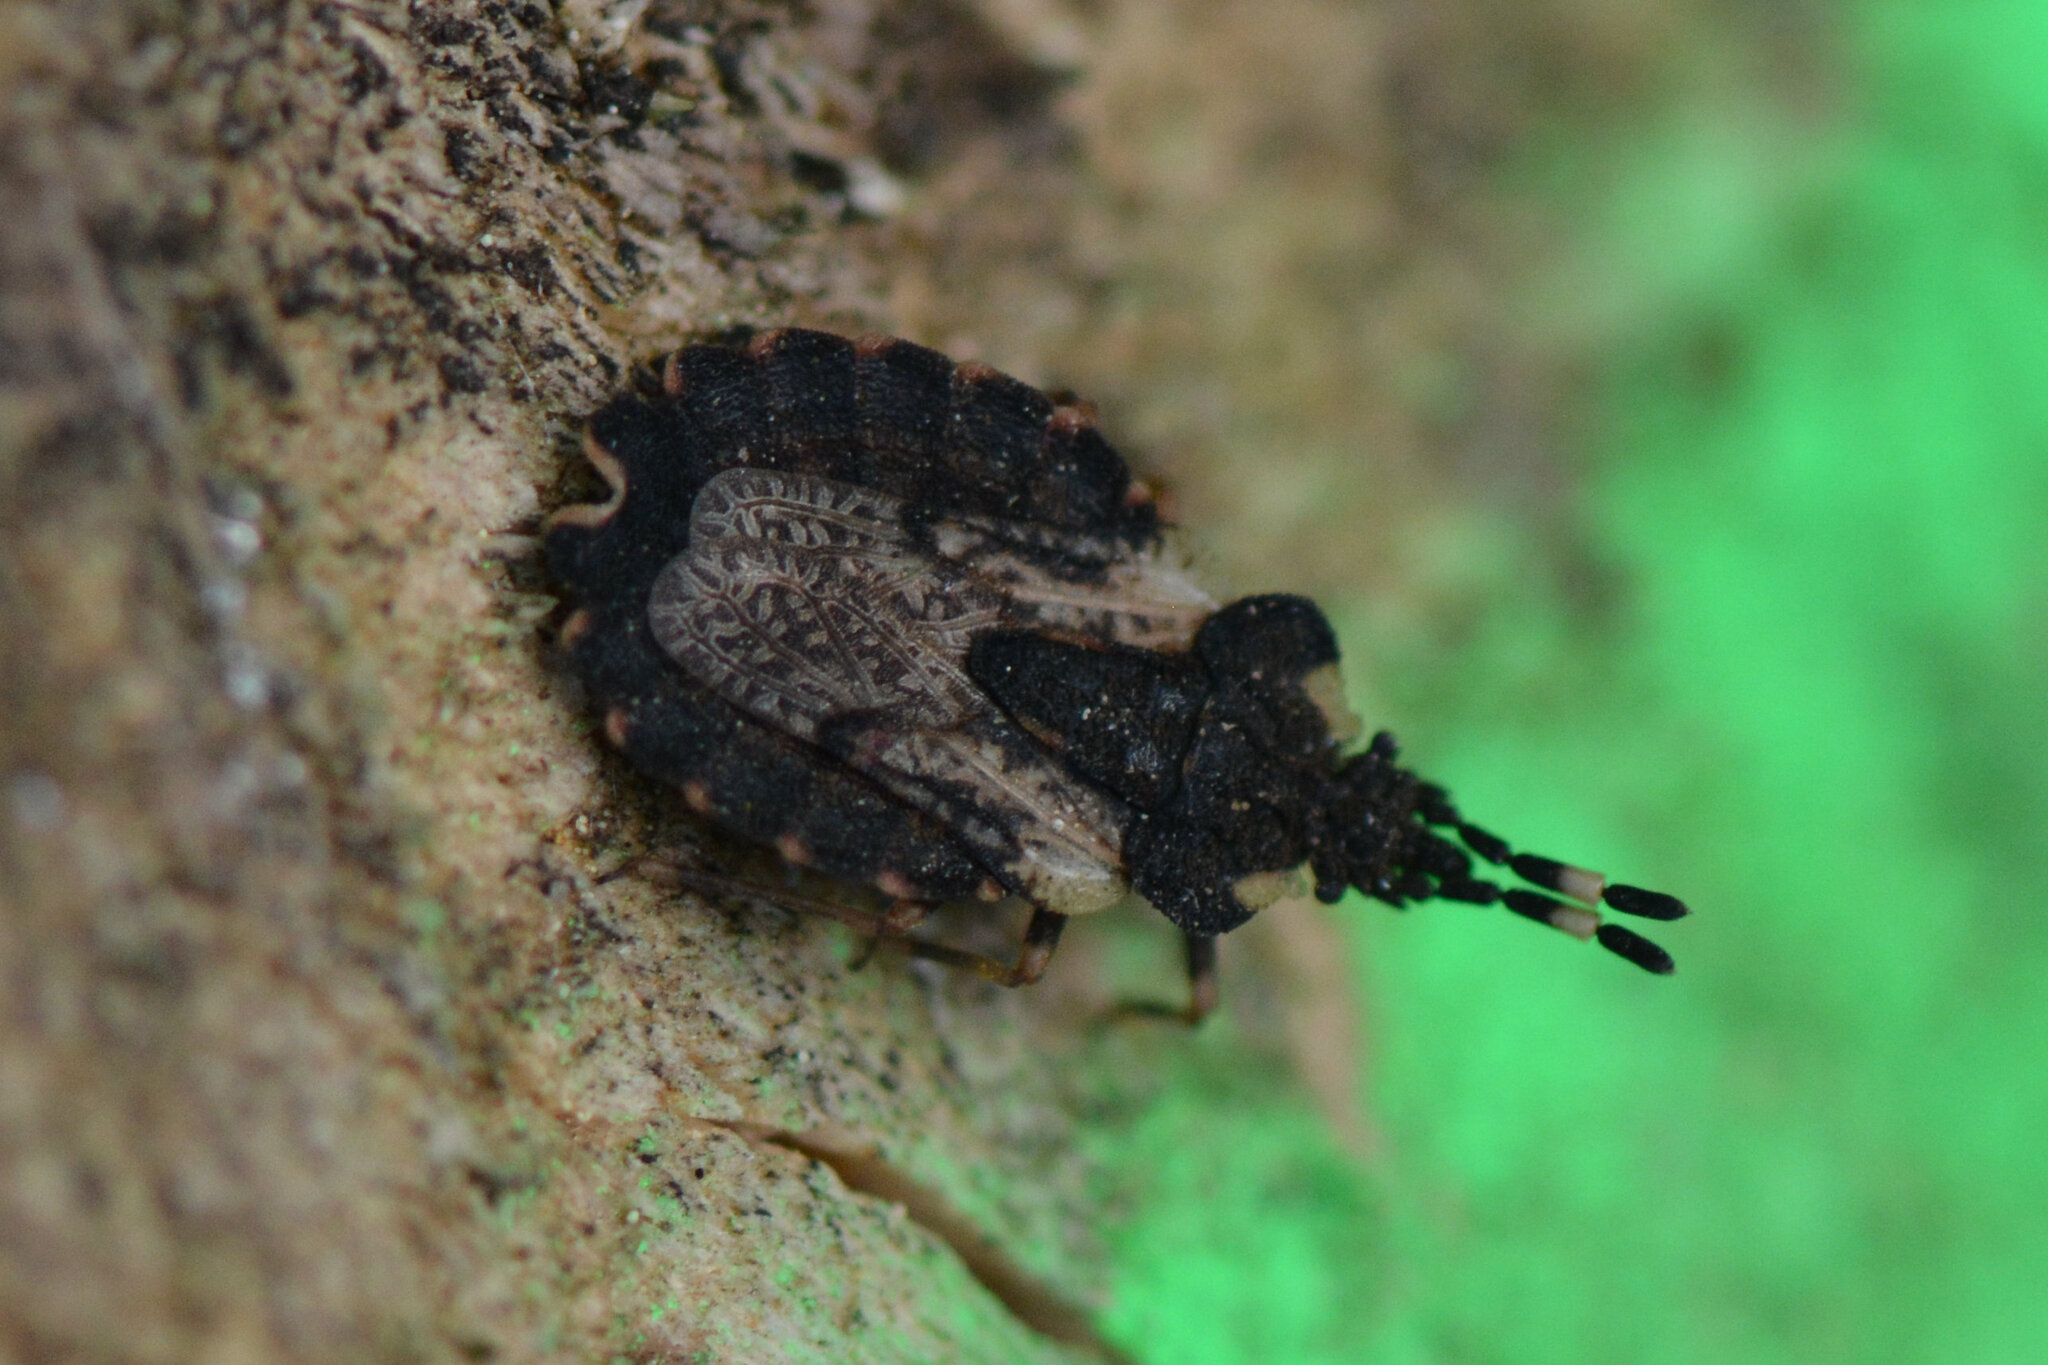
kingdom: Animalia
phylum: Arthropoda
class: Insecta
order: Hemiptera
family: Aradidae
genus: Aradus
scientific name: Aradus versicolor
